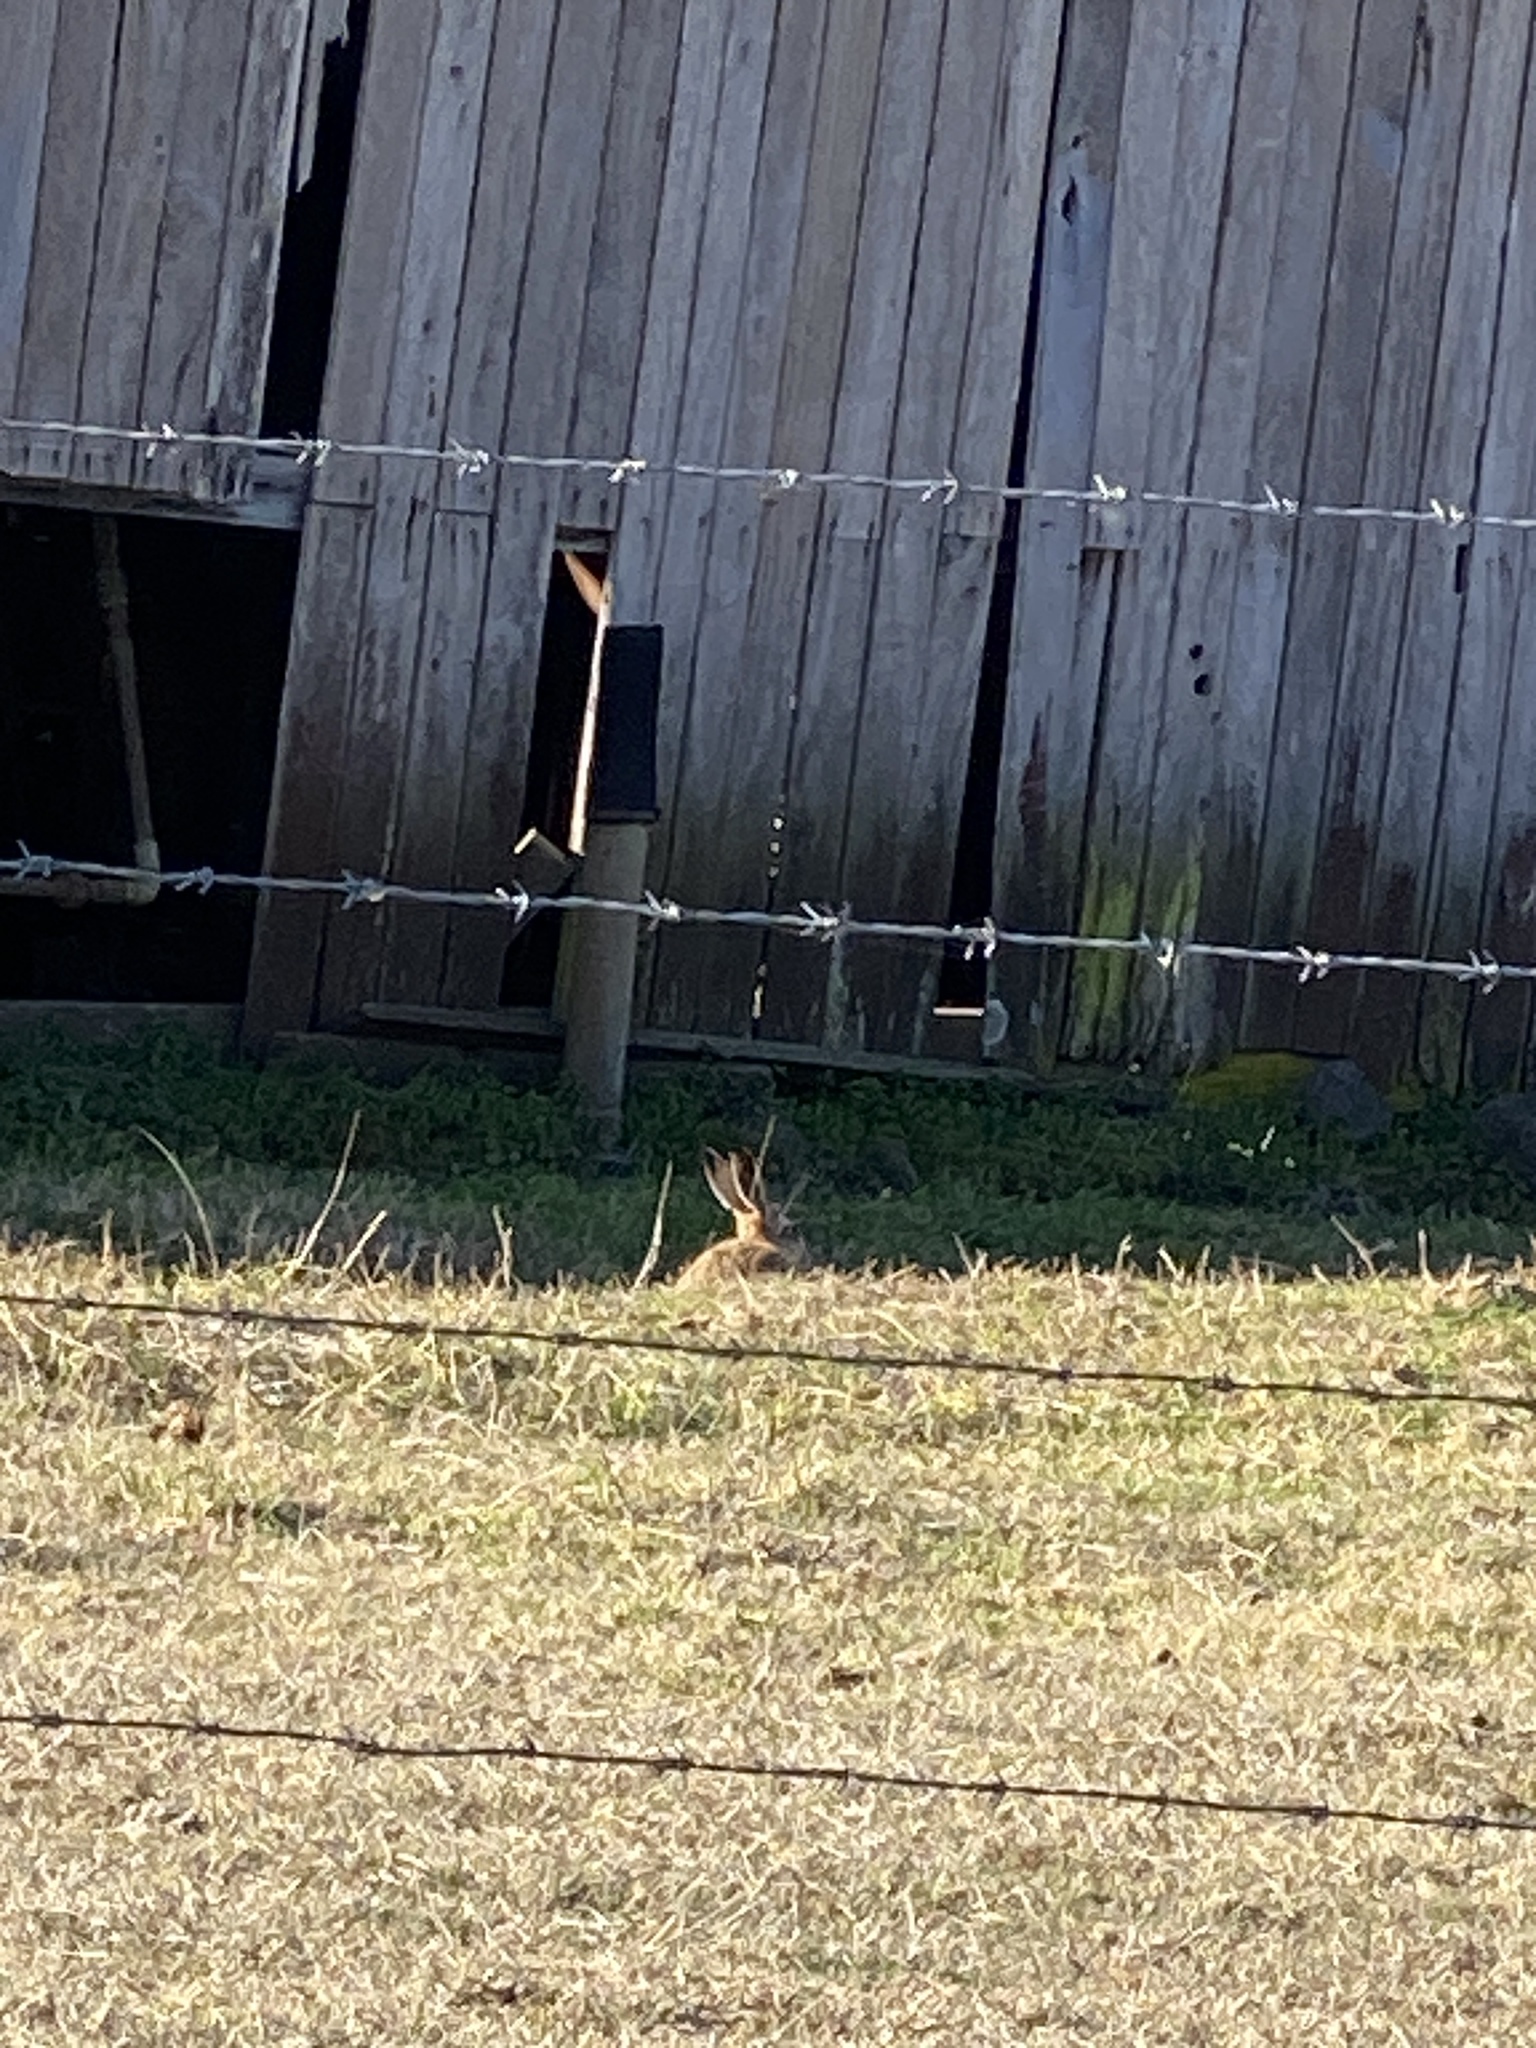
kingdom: Animalia
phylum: Chordata
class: Mammalia
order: Lagomorpha
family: Leporidae
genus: Lepus
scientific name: Lepus europaeus
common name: European hare
